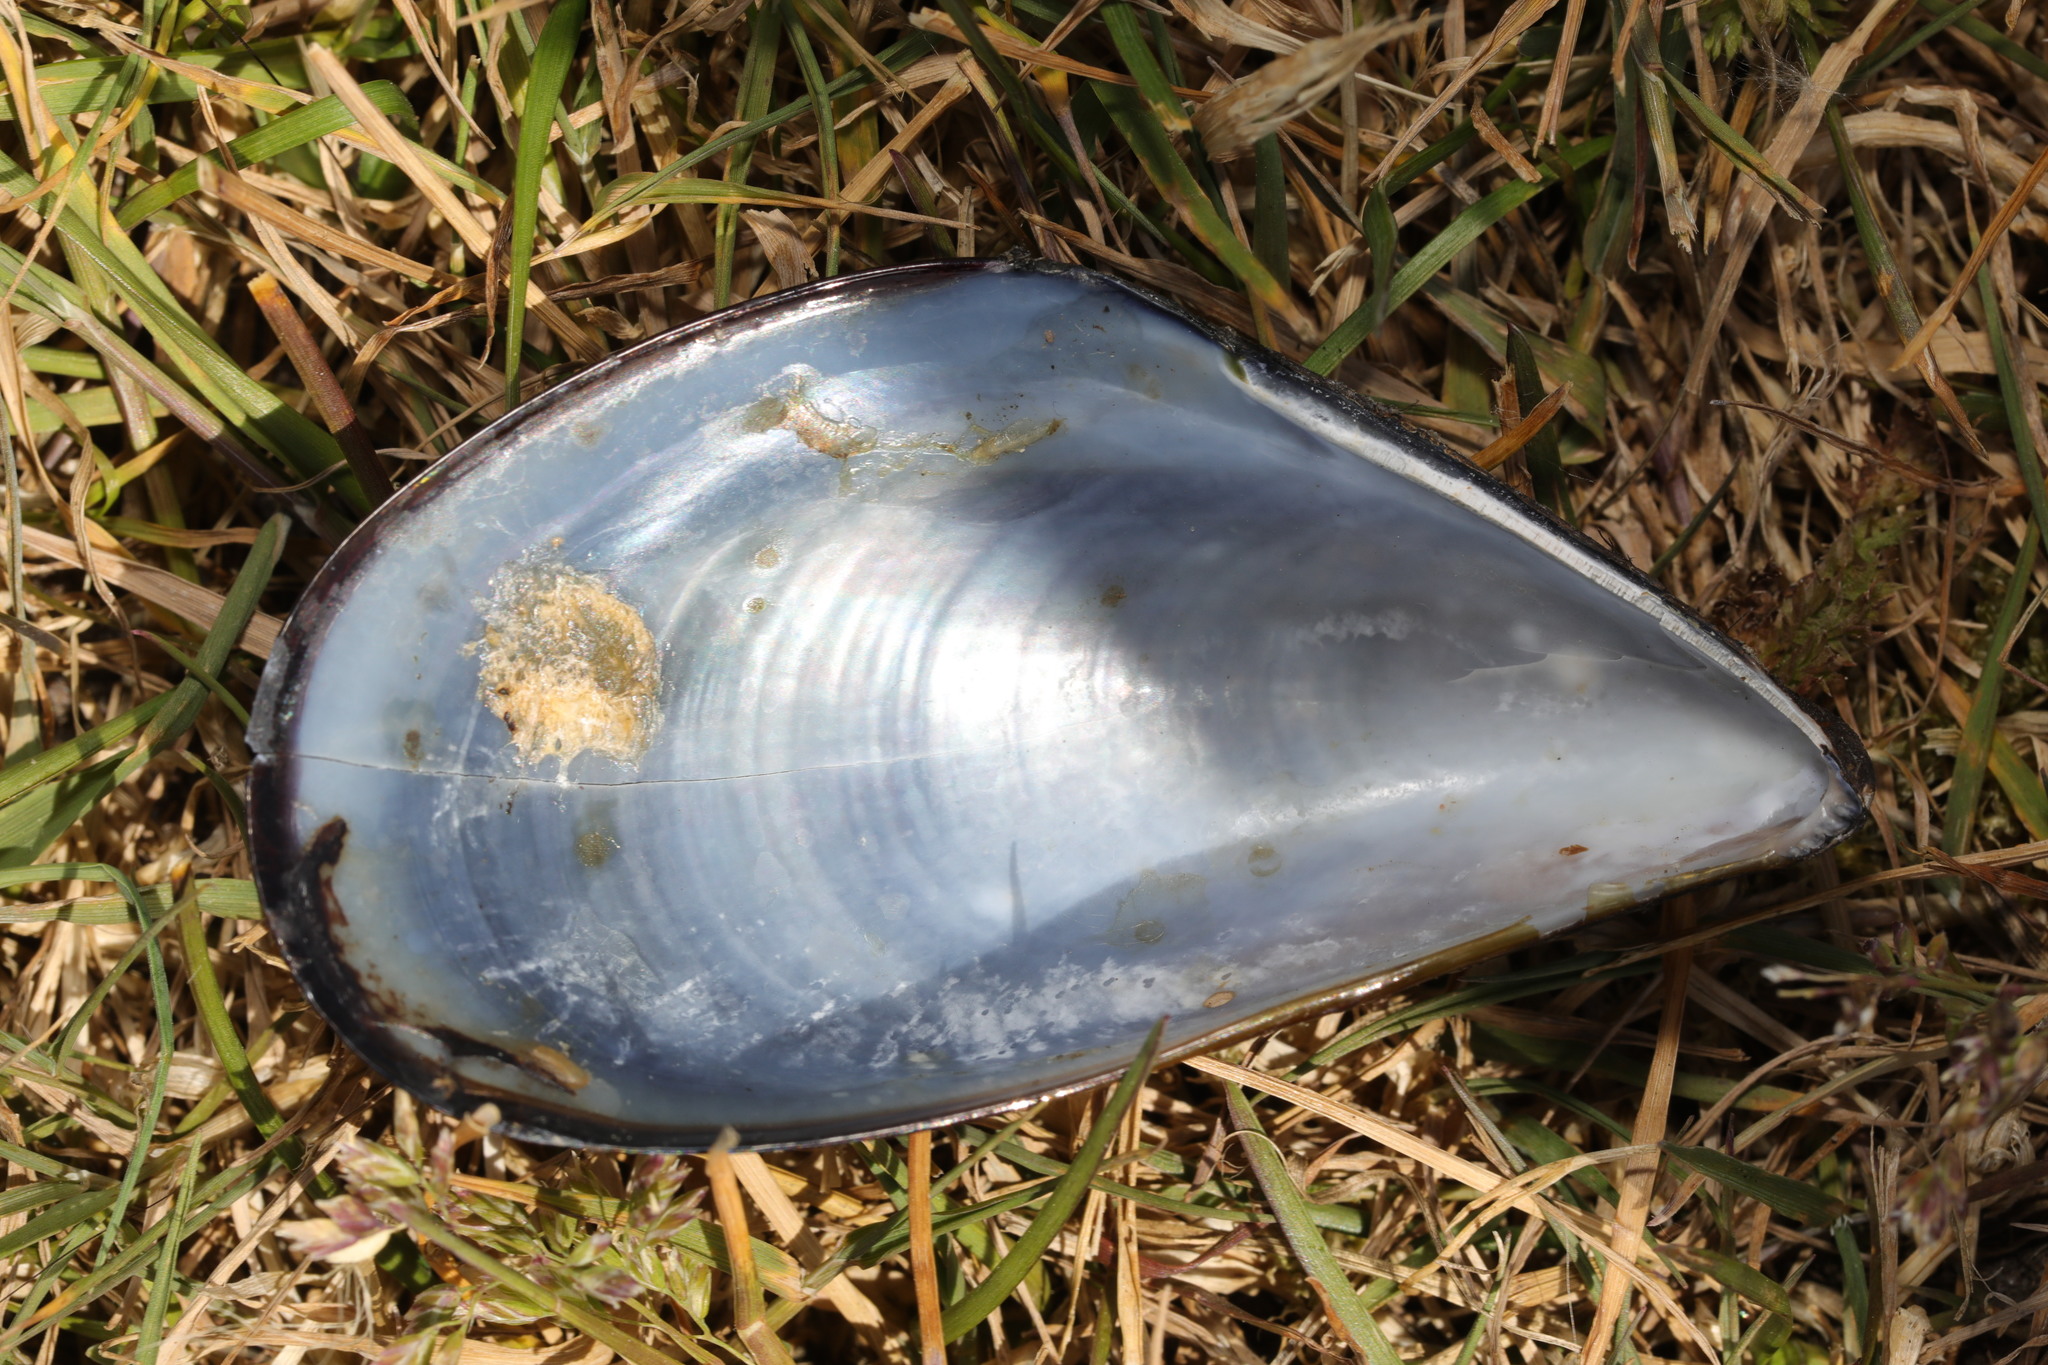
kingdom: Animalia
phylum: Mollusca
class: Bivalvia
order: Mytilida
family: Mytilidae
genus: Mytilus
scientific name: Mytilus edulis
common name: Blue mussel
